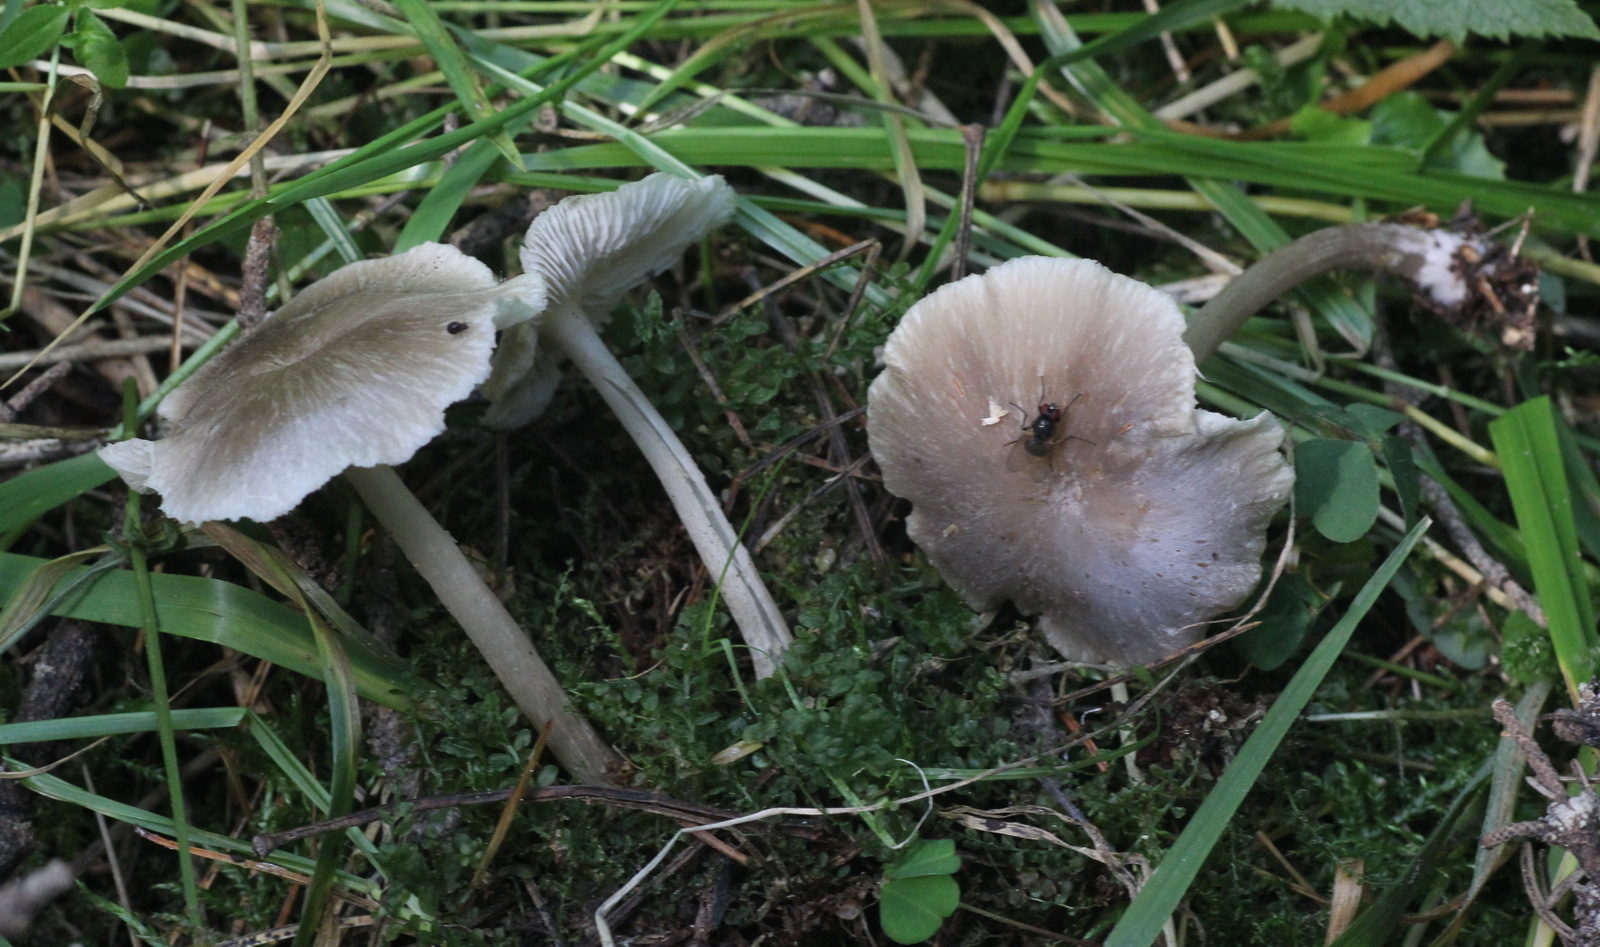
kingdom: Fungi
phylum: Basidiomycota
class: Agaricomycetes
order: Agaricales
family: Marasmiaceae
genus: Clitocybula
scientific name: Clitocybula lacerata
